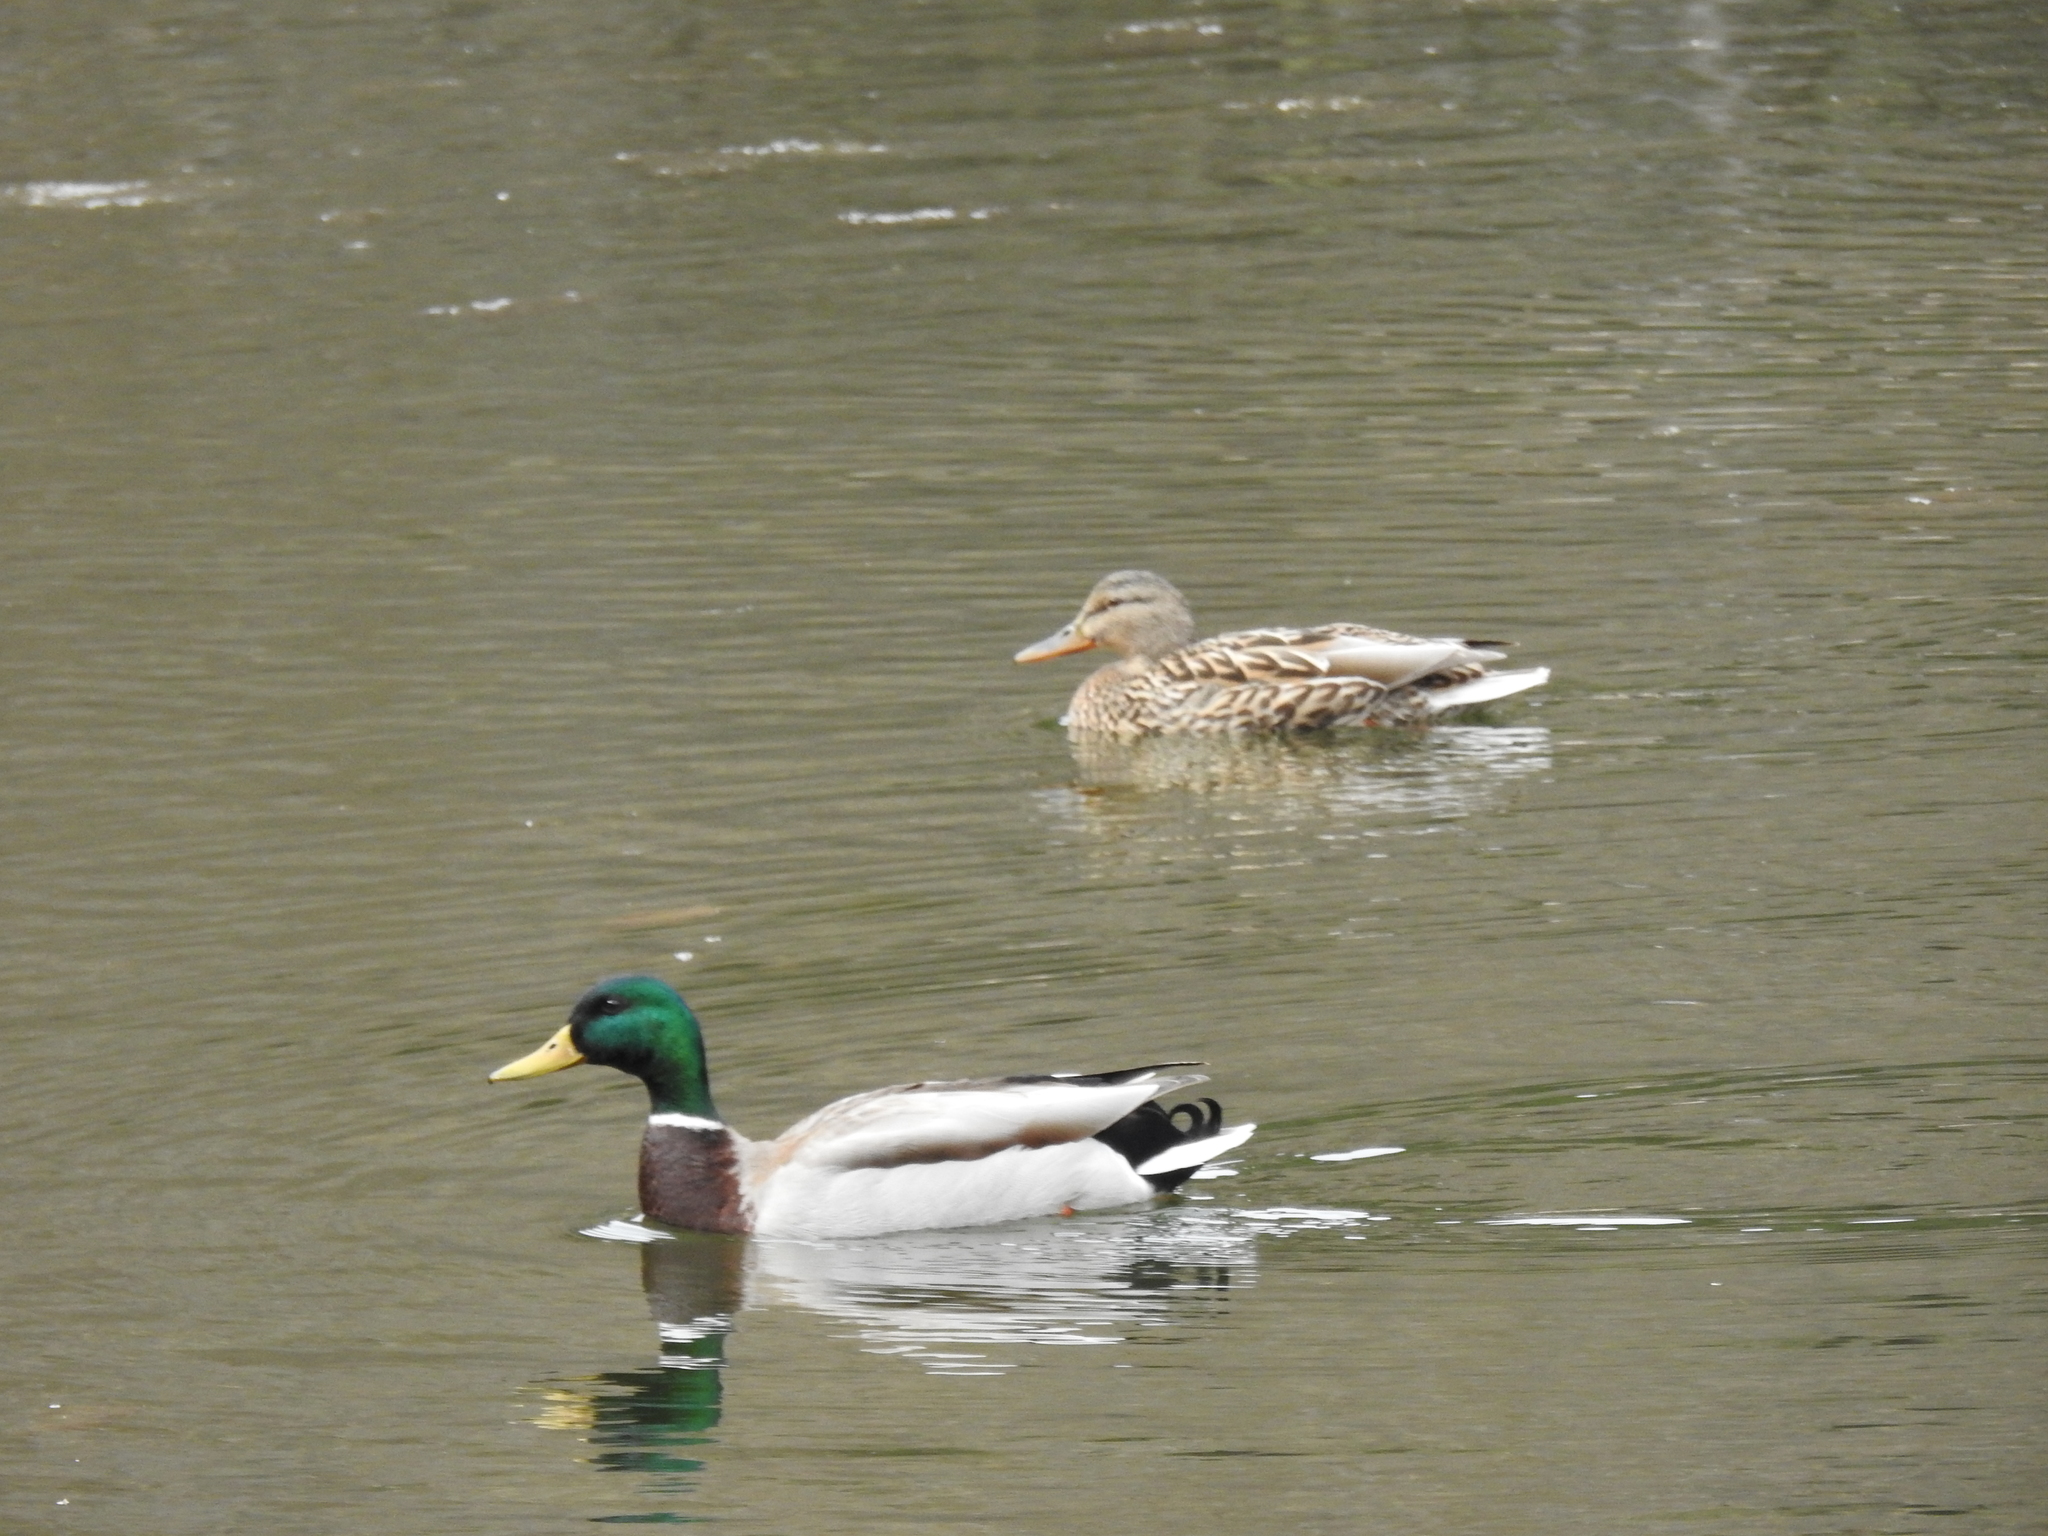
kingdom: Animalia
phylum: Chordata
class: Aves
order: Anseriformes
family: Anatidae
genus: Anas
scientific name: Anas platyrhynchos
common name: Mallard
